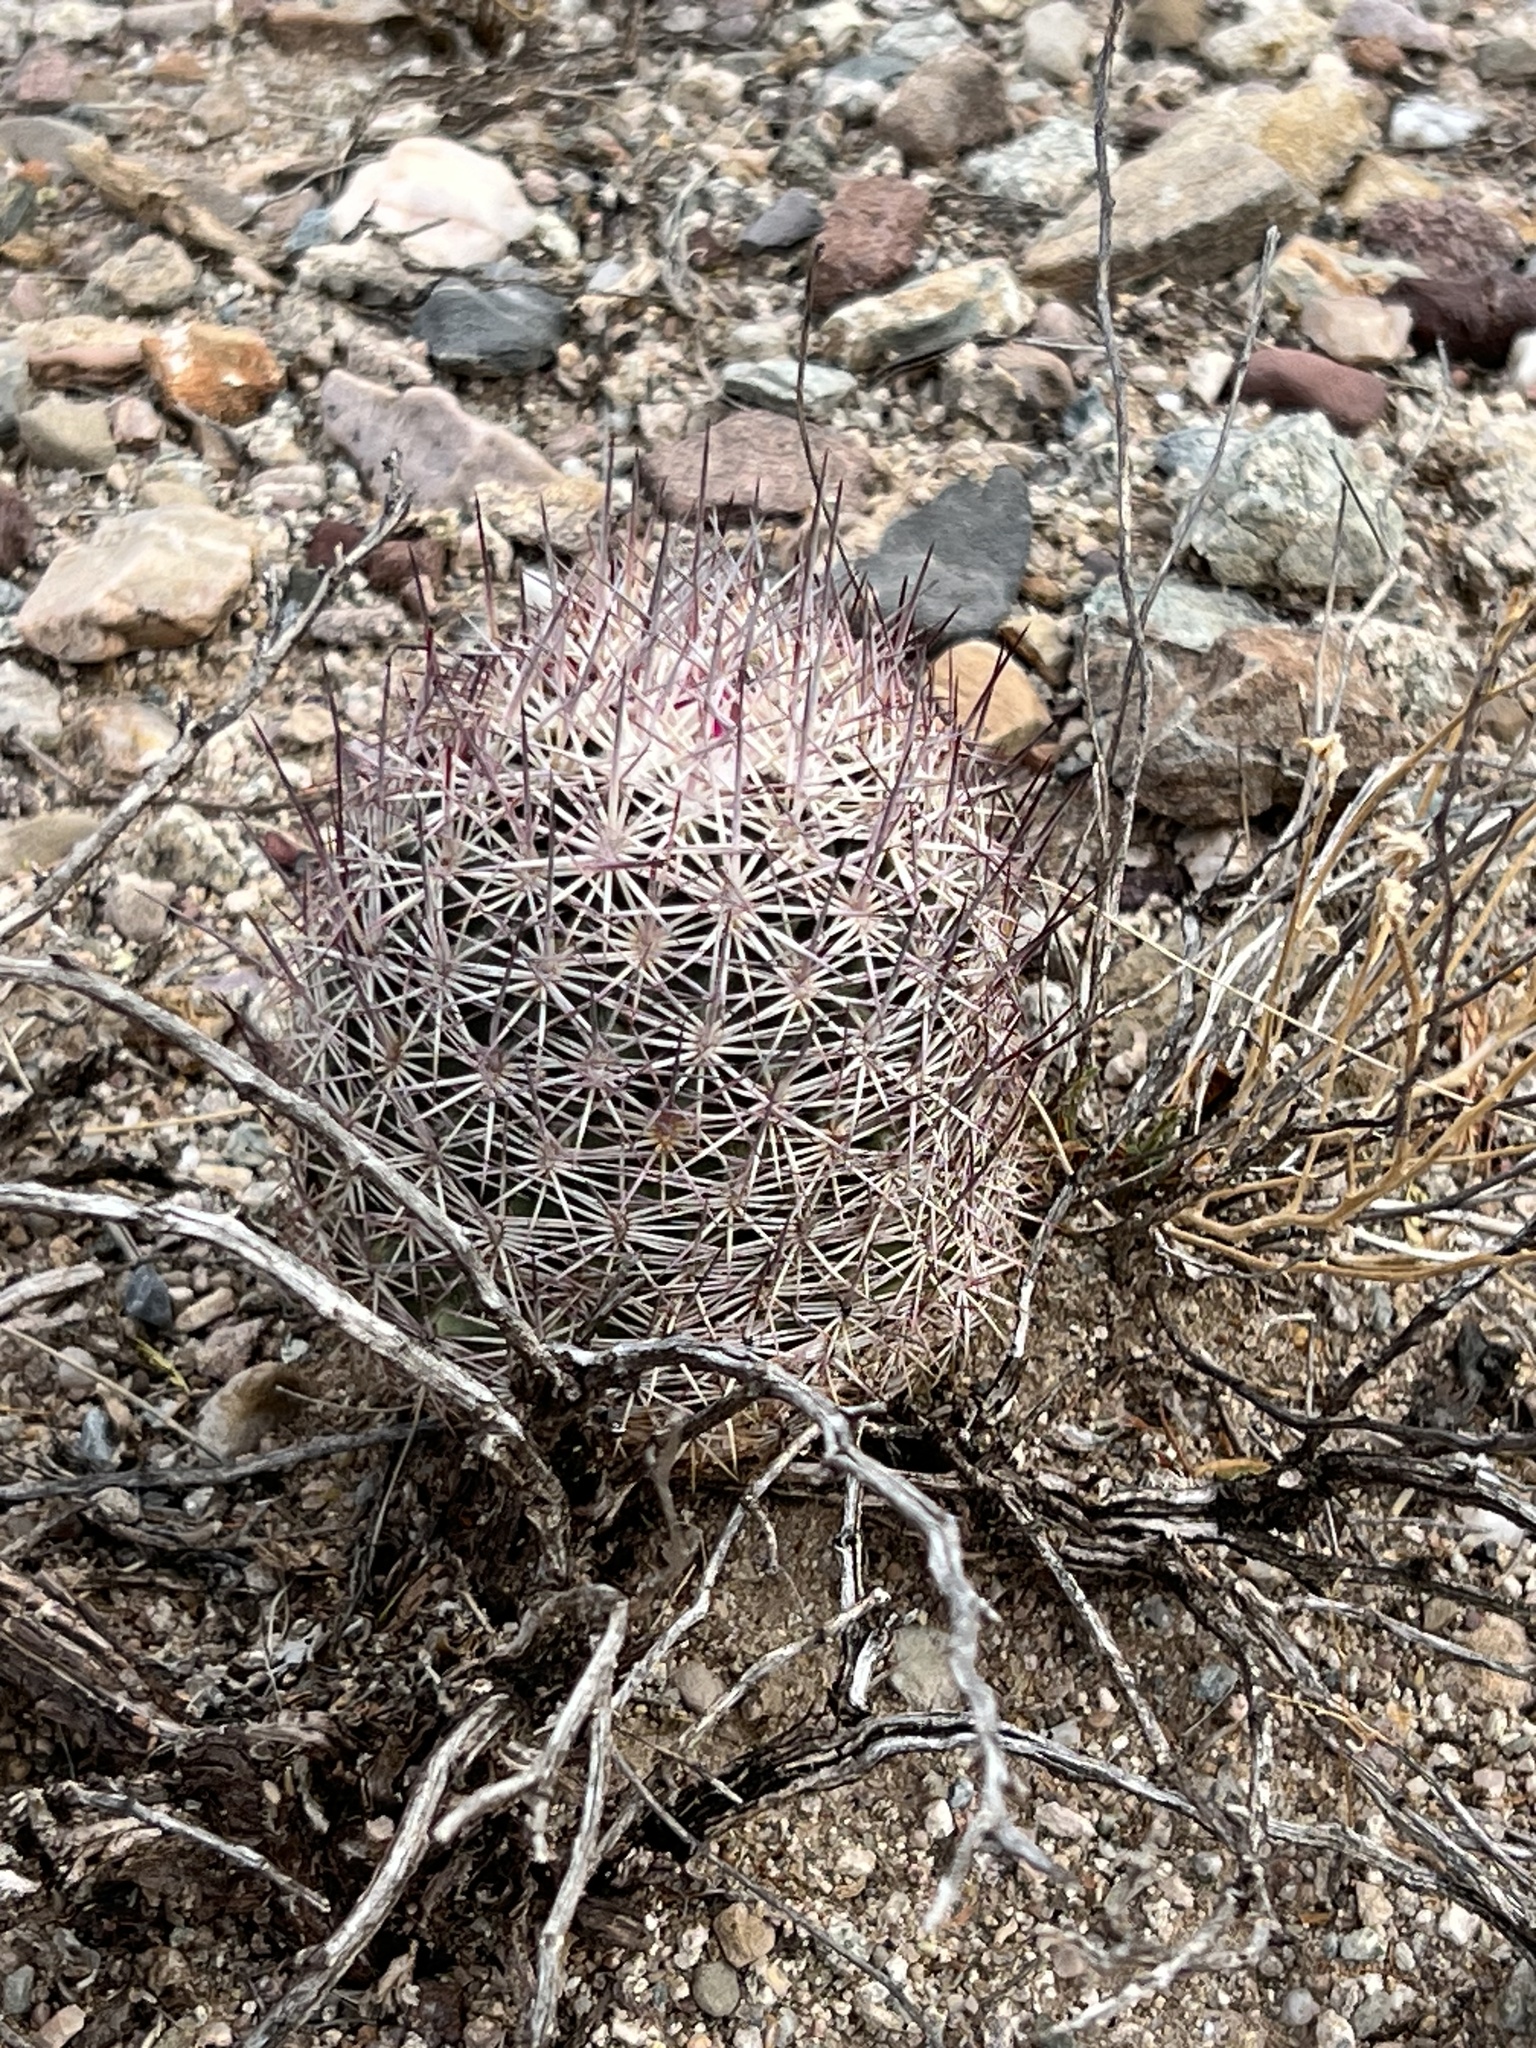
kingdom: Plantae
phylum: Tracheophyta
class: Magnoliopsida
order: Caryophyllales
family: Cactaceae
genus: Sclerocactus
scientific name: Sclerocactus johnsonii
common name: Eight-spine fishhook cactus
